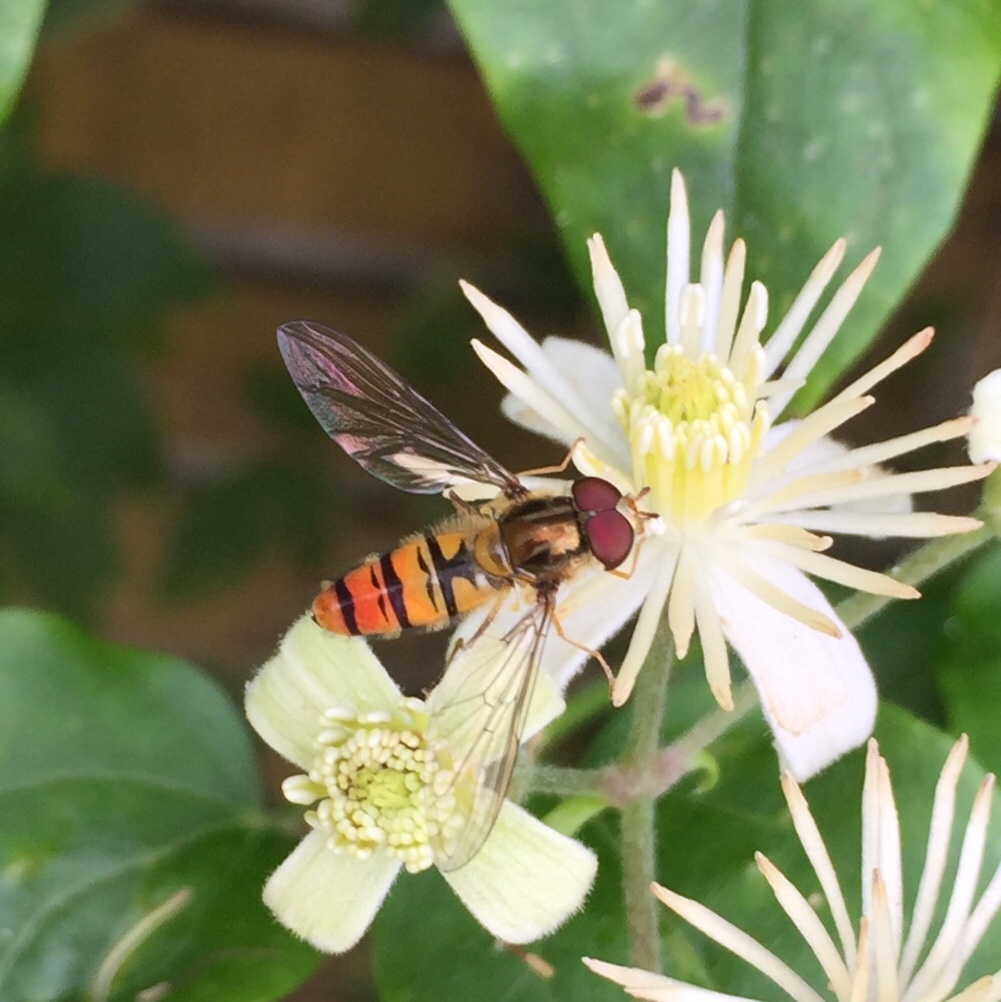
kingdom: Animalia
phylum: Arthropoda
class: Insecta
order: Diptera
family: Syrphidae
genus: Episyrphus
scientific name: Episyrphus balteatus
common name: Marmalade hoverfly
